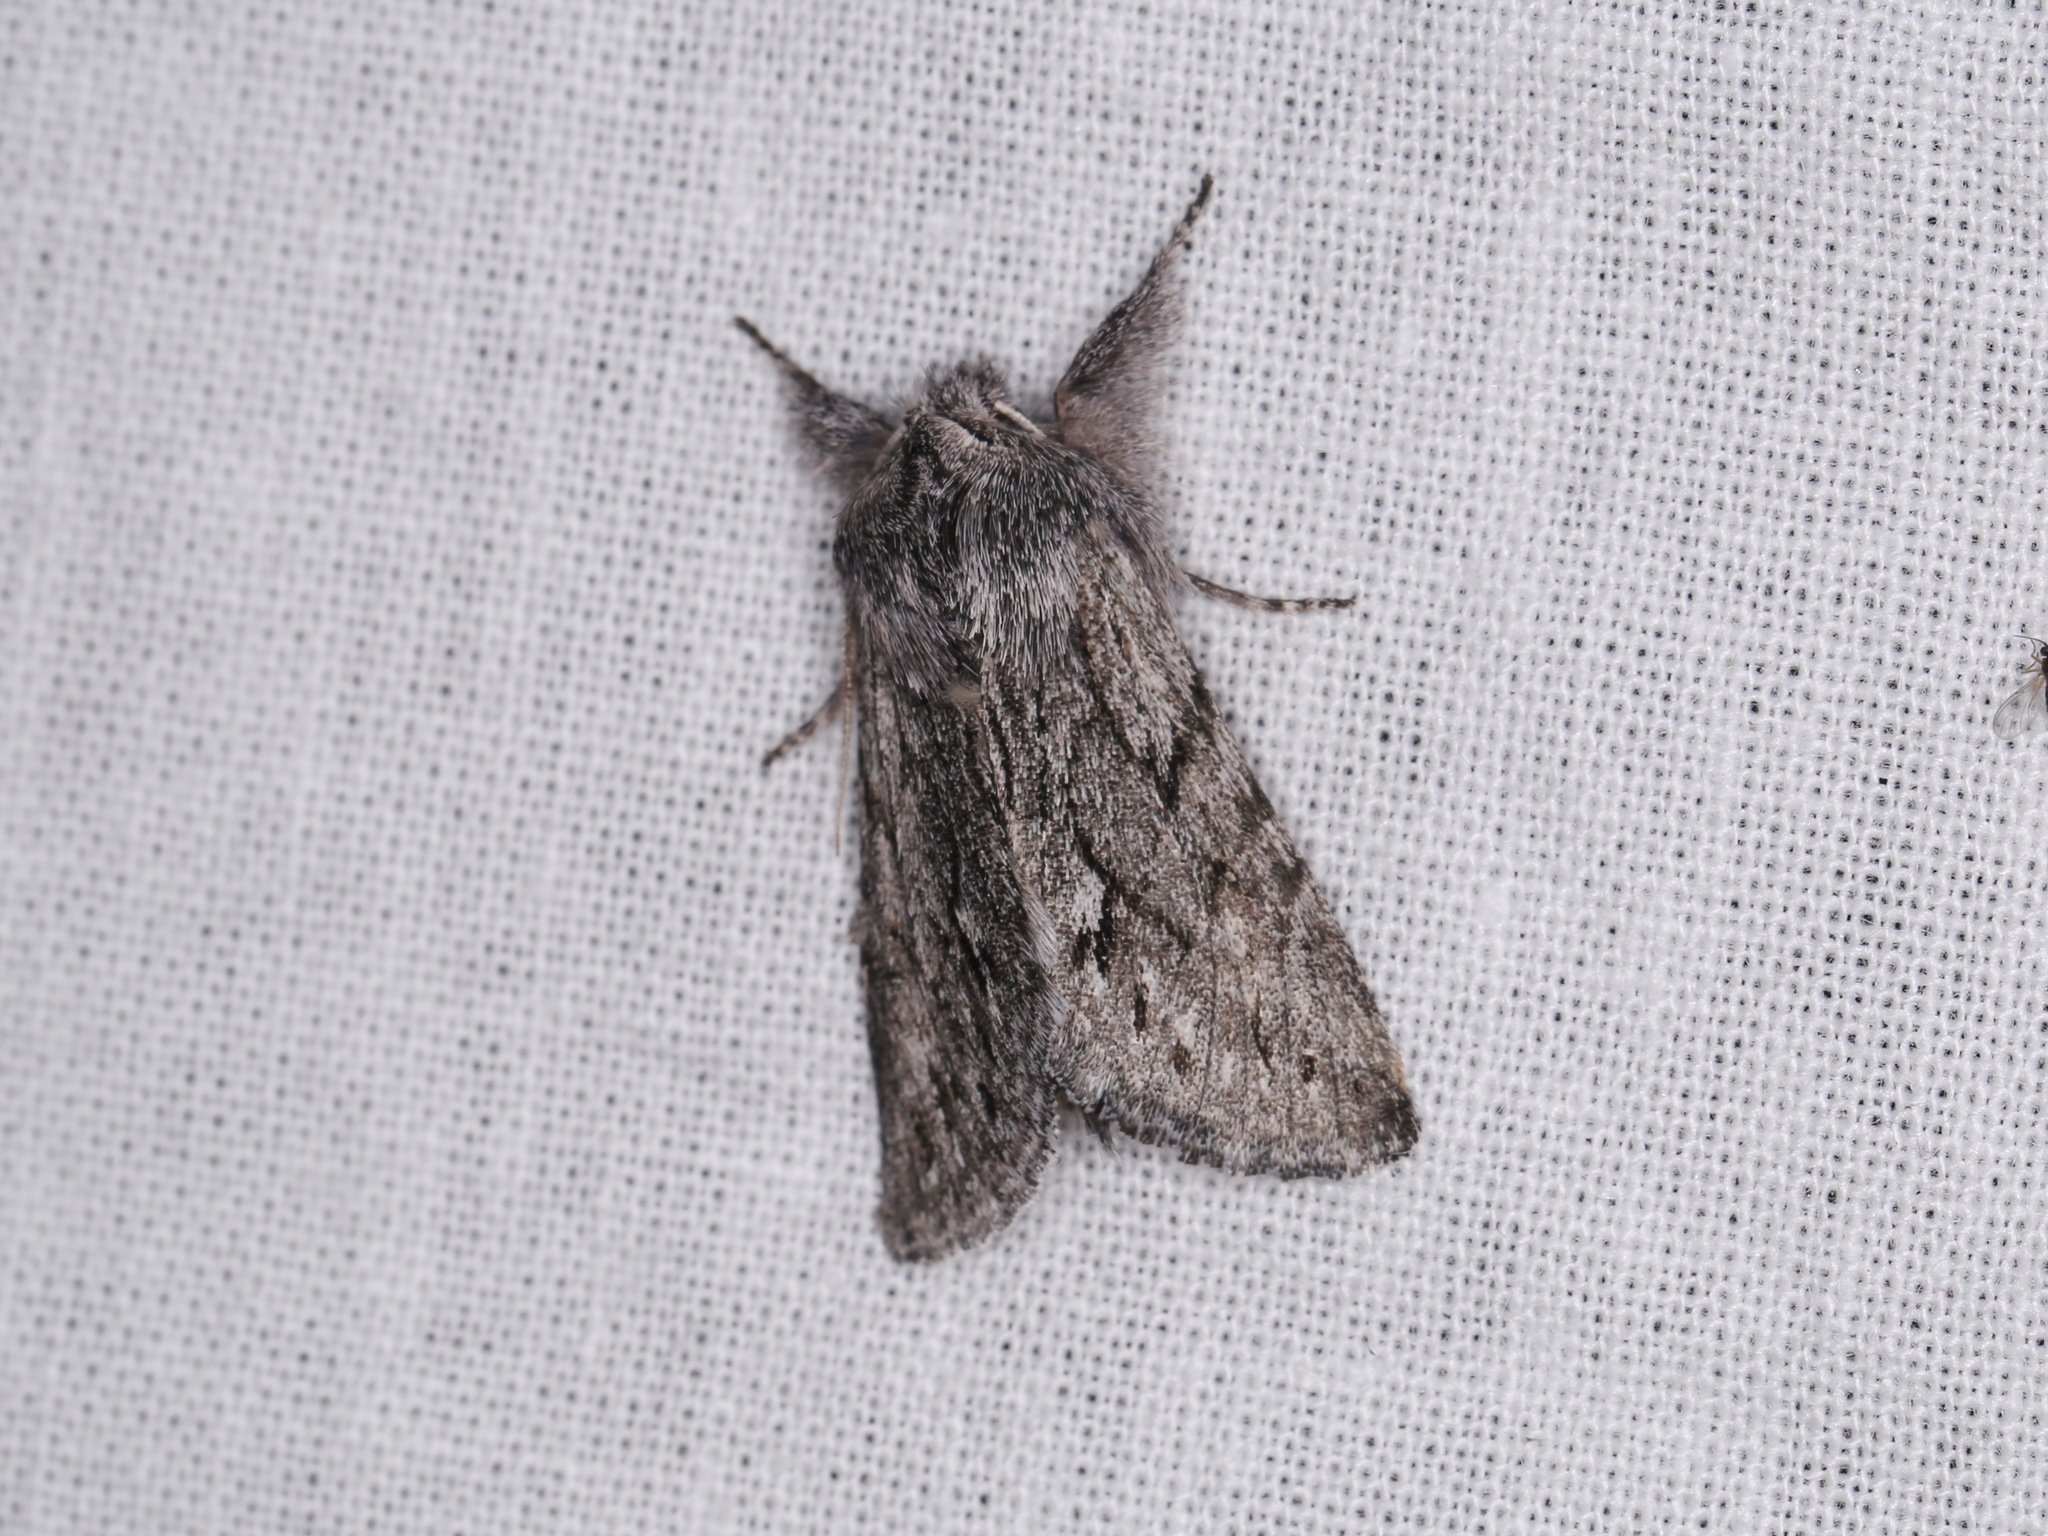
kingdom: Animalia
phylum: Arthropoda
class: Insecta
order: Lepidoptera
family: Noctuidae
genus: Pleromelloida
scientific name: Pleromelloida cinerea
